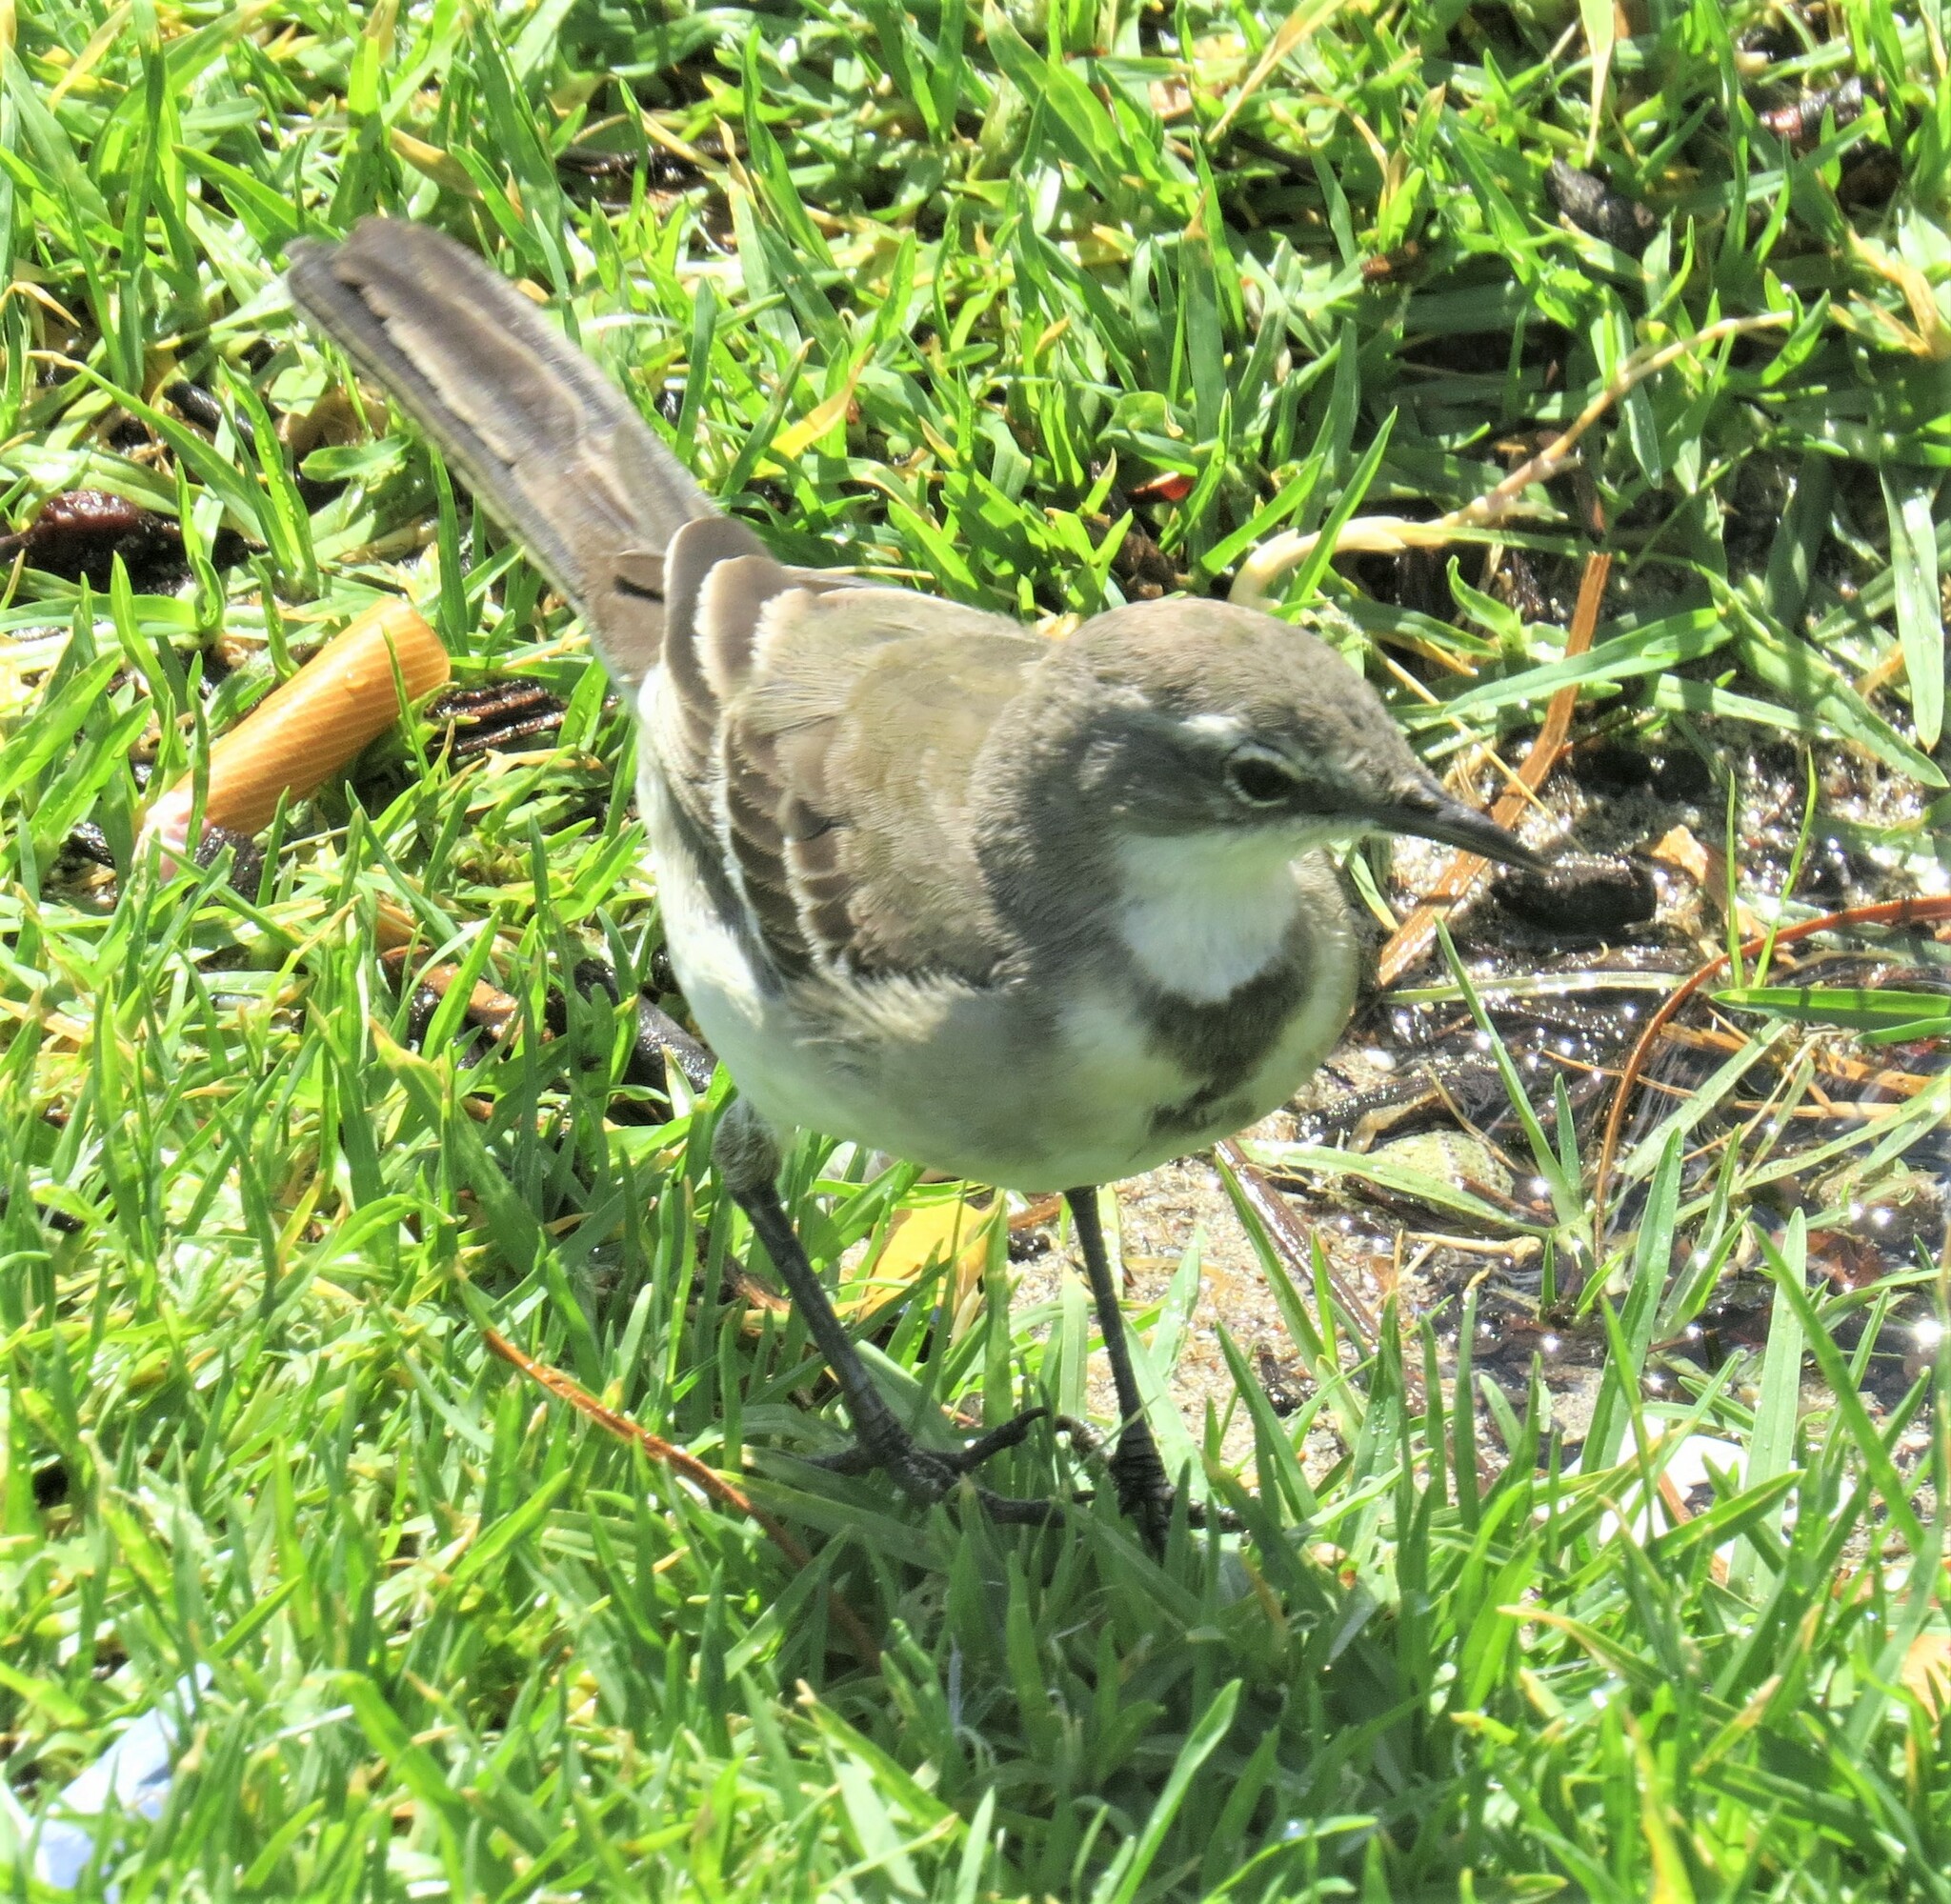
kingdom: Animalia
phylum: Chordata
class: Aves
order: Passeriformes
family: Motacillidae
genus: Motacilla
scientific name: Motacilla capensis
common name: Cape wagtail
